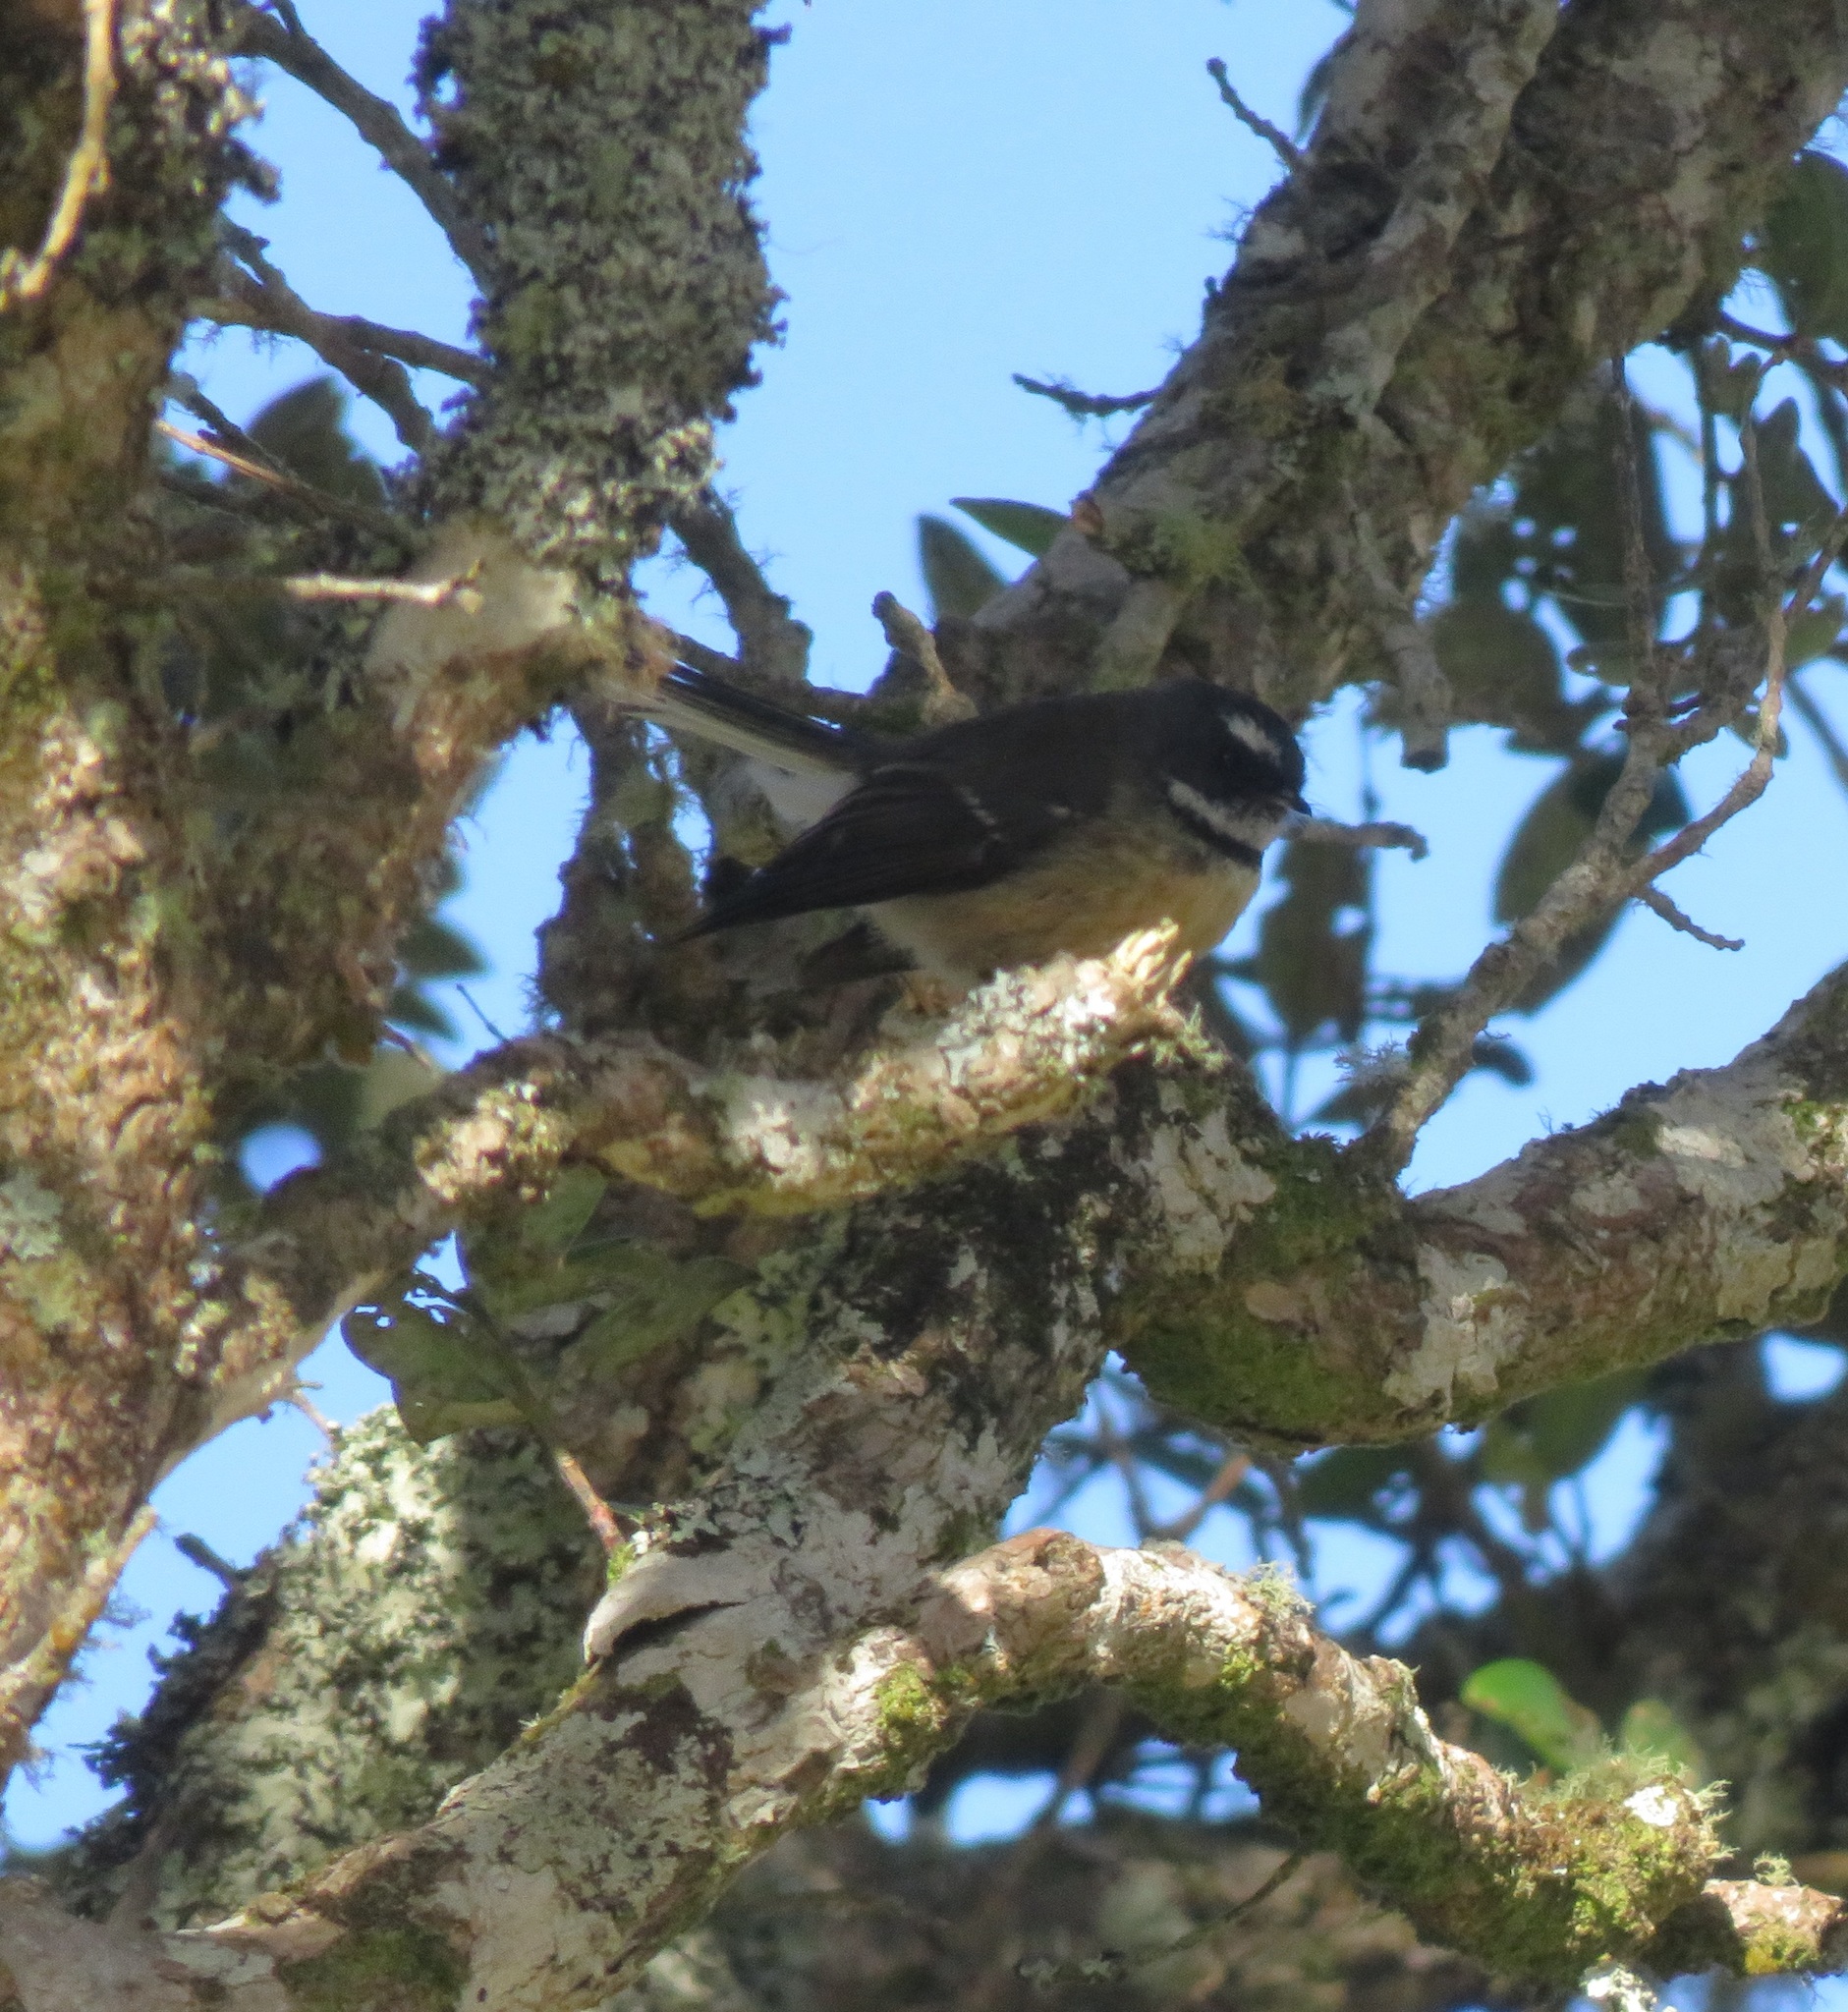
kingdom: Animalia
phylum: Chordata
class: Aves
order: Passeriformes
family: Rhipiduridae
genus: Rhipidura
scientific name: Rhipidura fuliginosa
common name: New zealand fantail
